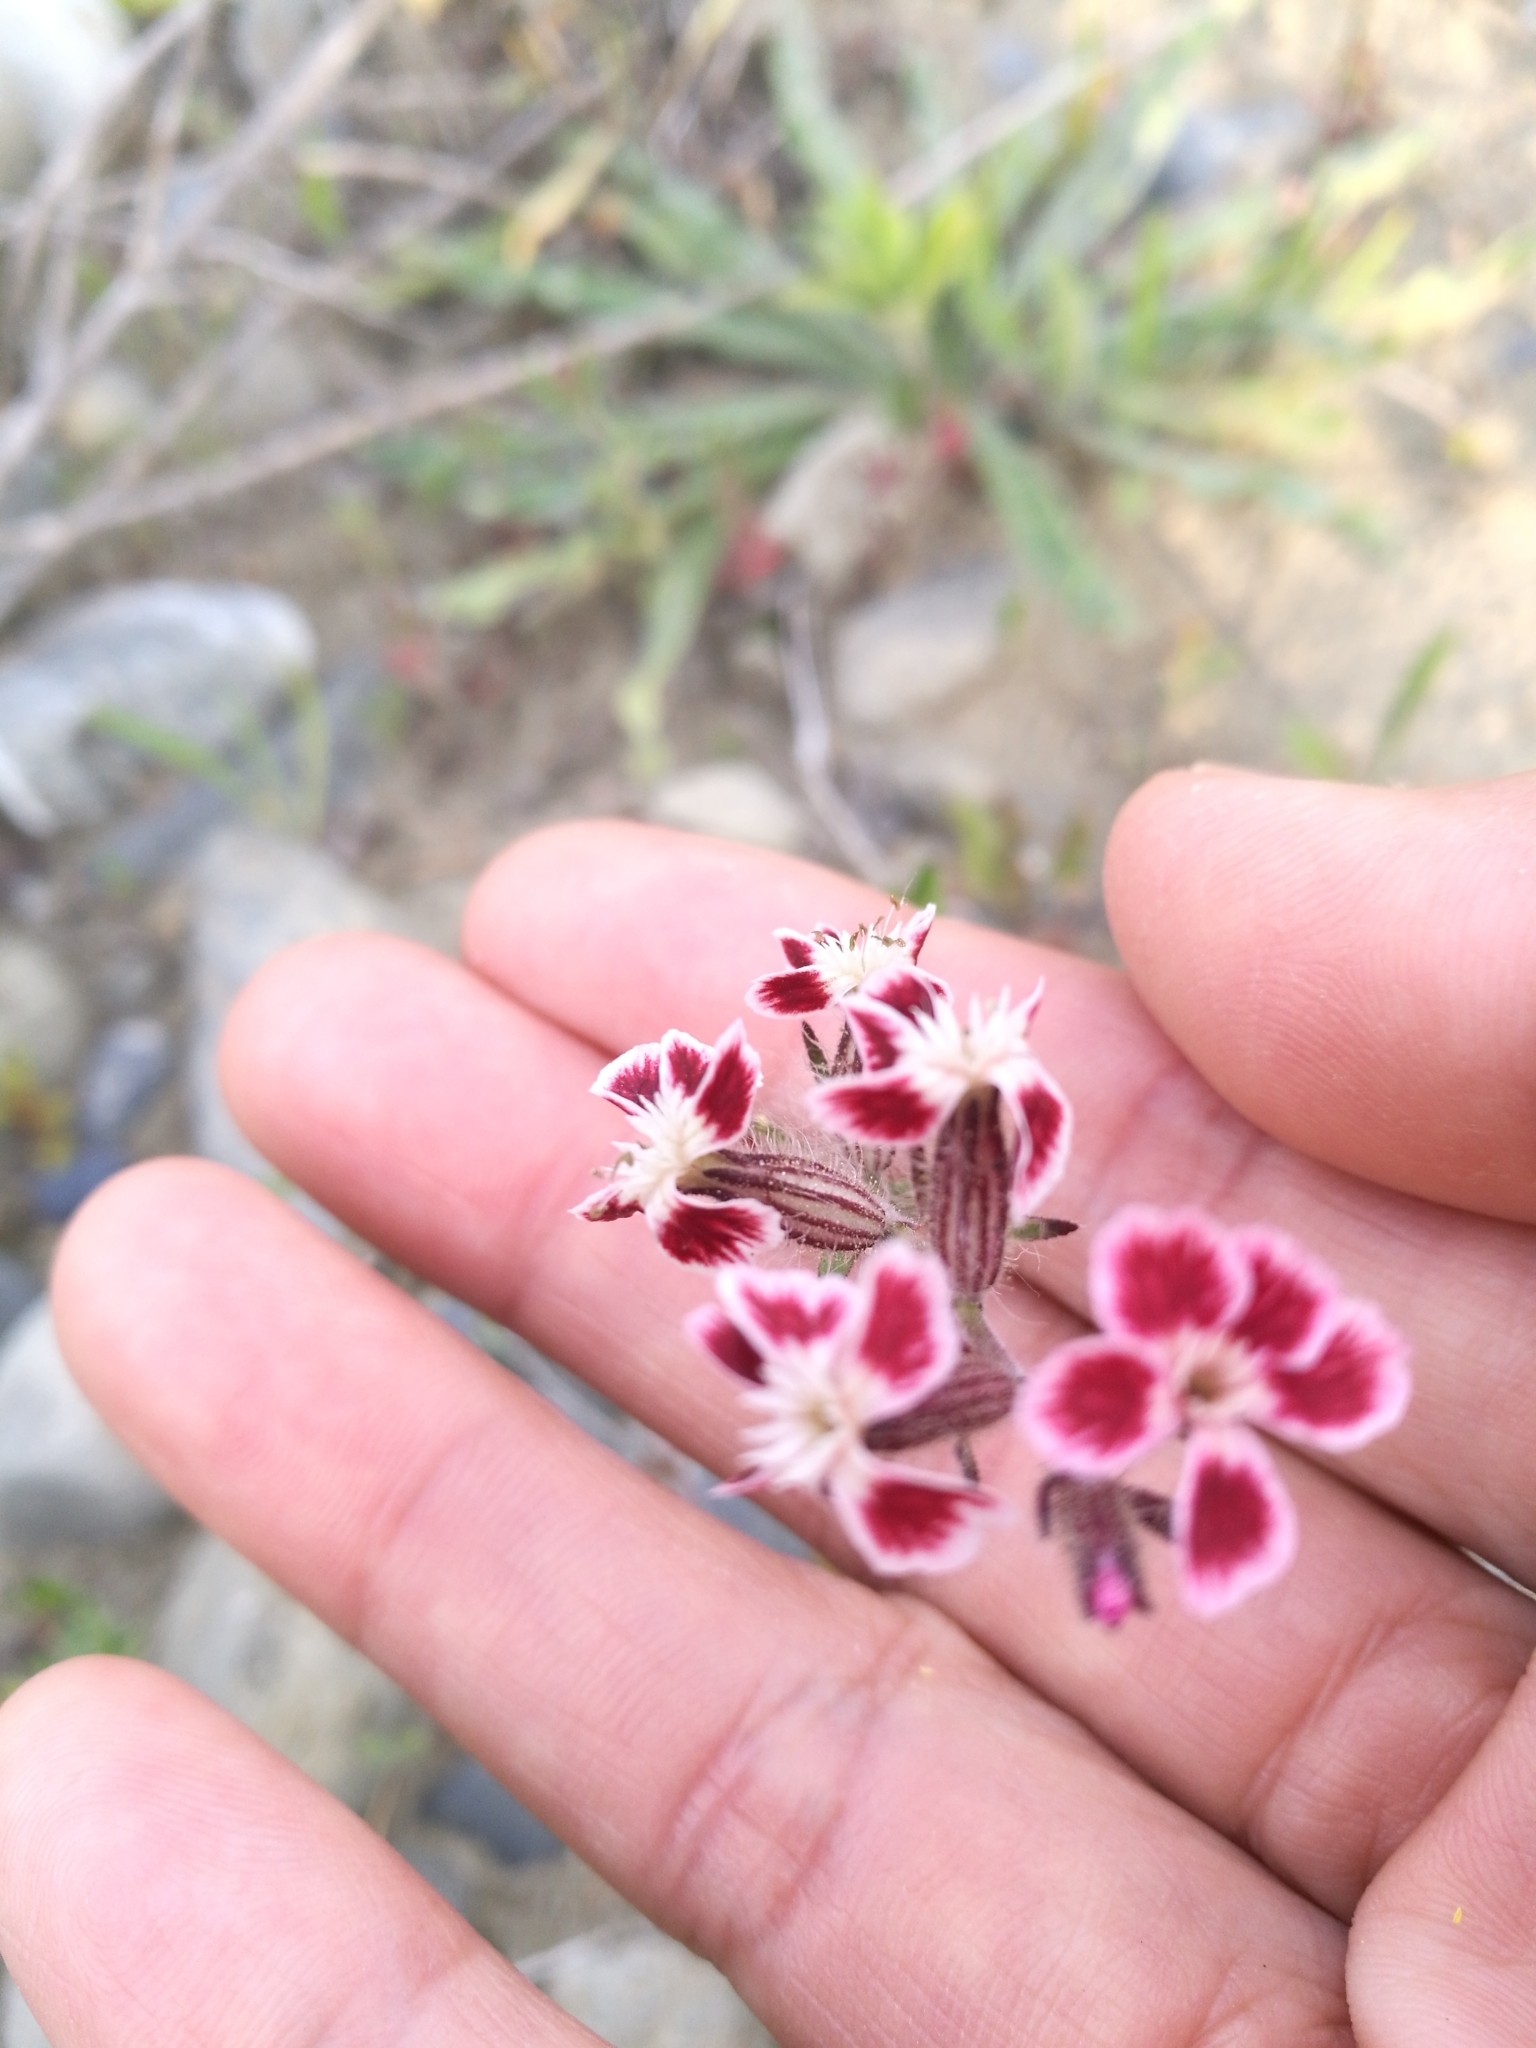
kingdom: Plantae
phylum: Tracheophyta
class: Magnoliopsida
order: Caryophyllales
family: Caryophyllaceae
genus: Silene
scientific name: Silene gallica
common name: Small-flowered catchfly
